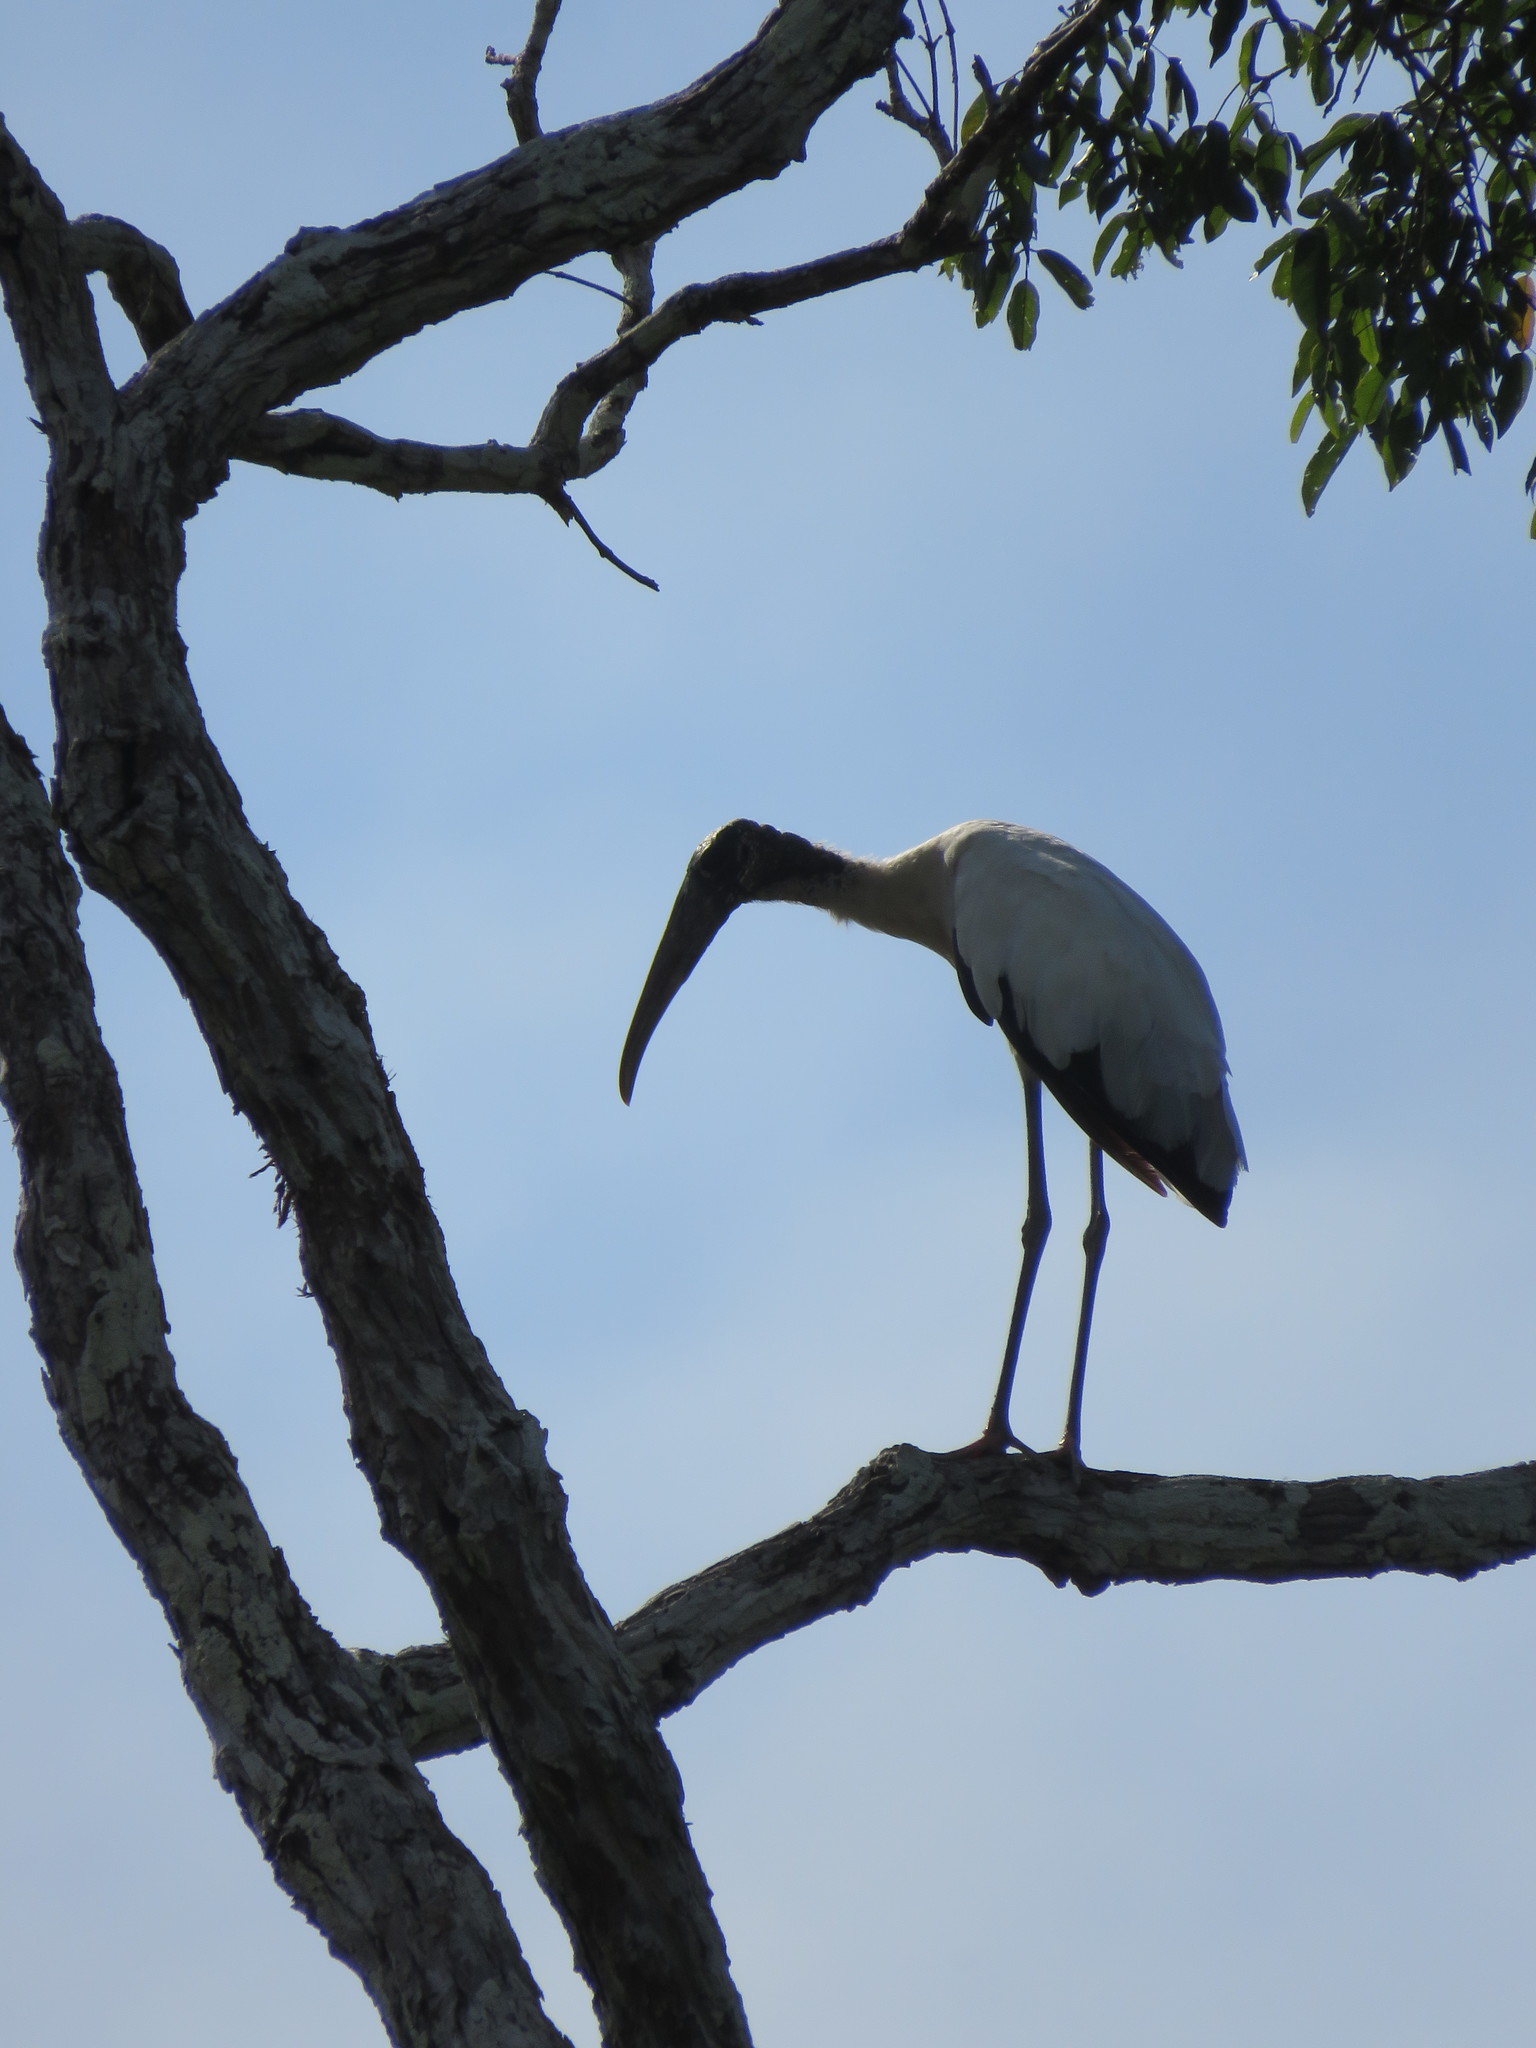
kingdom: Animalia
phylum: Chordata
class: Aves
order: Ciconiiformes
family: Ciconiidae
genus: Mycteria
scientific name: Mycteria americana
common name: Wood stork
